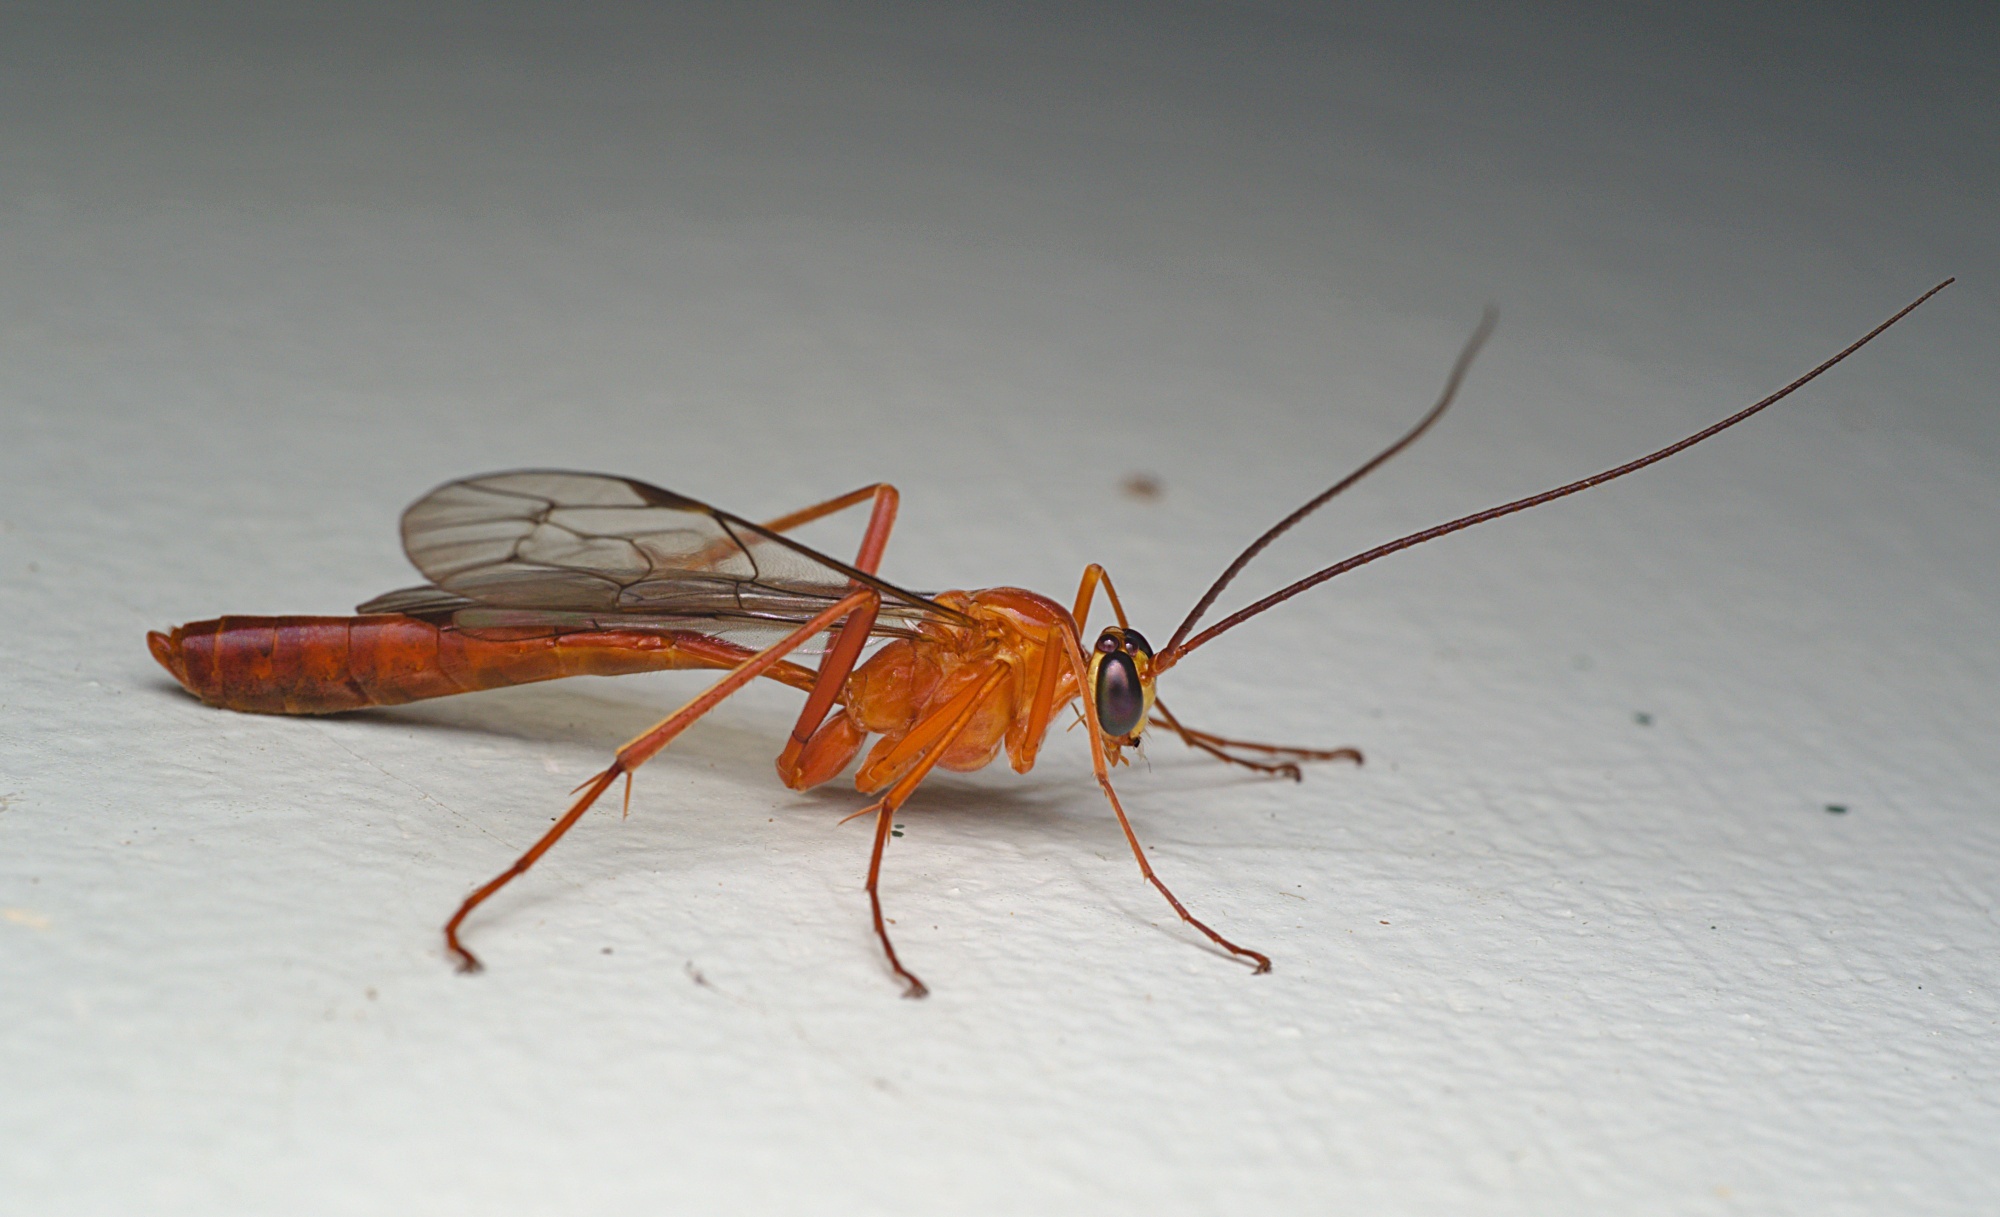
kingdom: Animalia
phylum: Arthropoda
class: Insecta
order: Hymenoptera
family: Ichneumonidae
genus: Netelia
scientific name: Netelia producta
